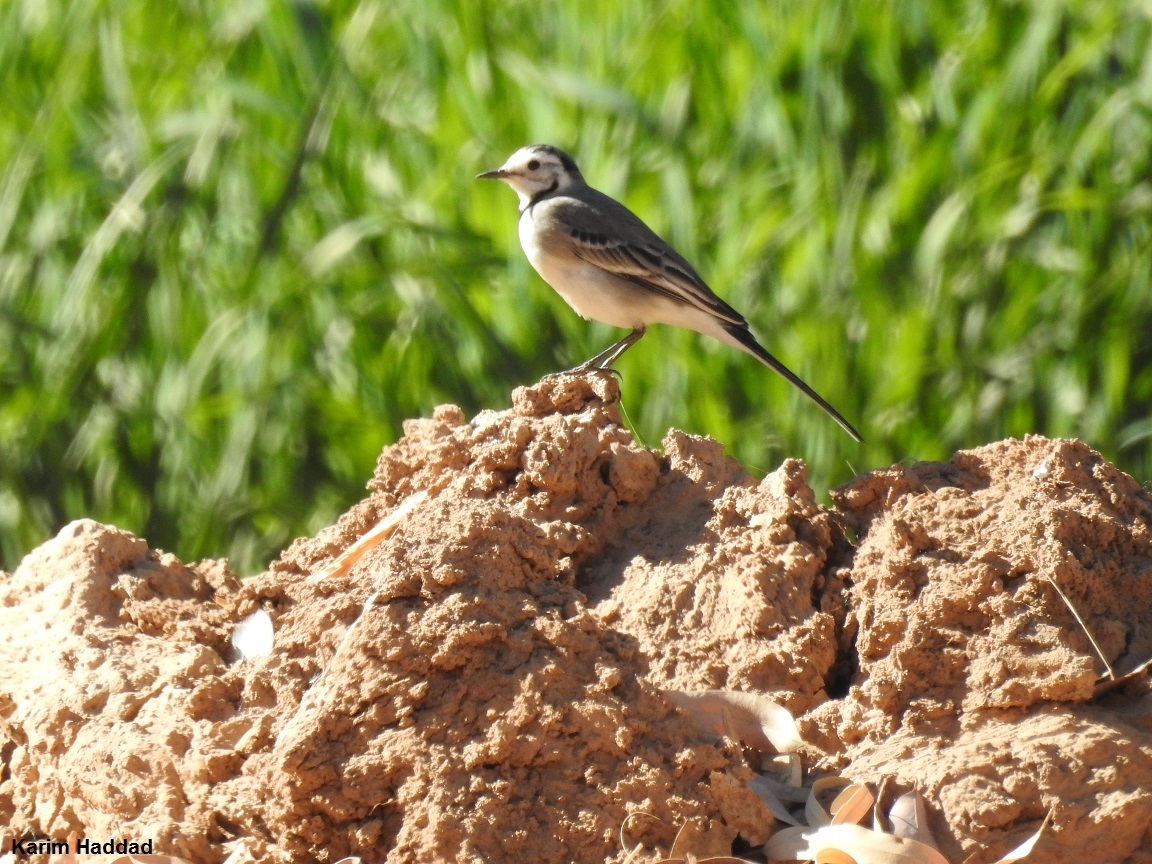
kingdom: Animalia
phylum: Chordata
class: Aves
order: Passeriformes
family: Motacillidae
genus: Motacilla
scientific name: Motacilla alba
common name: White wagtail
